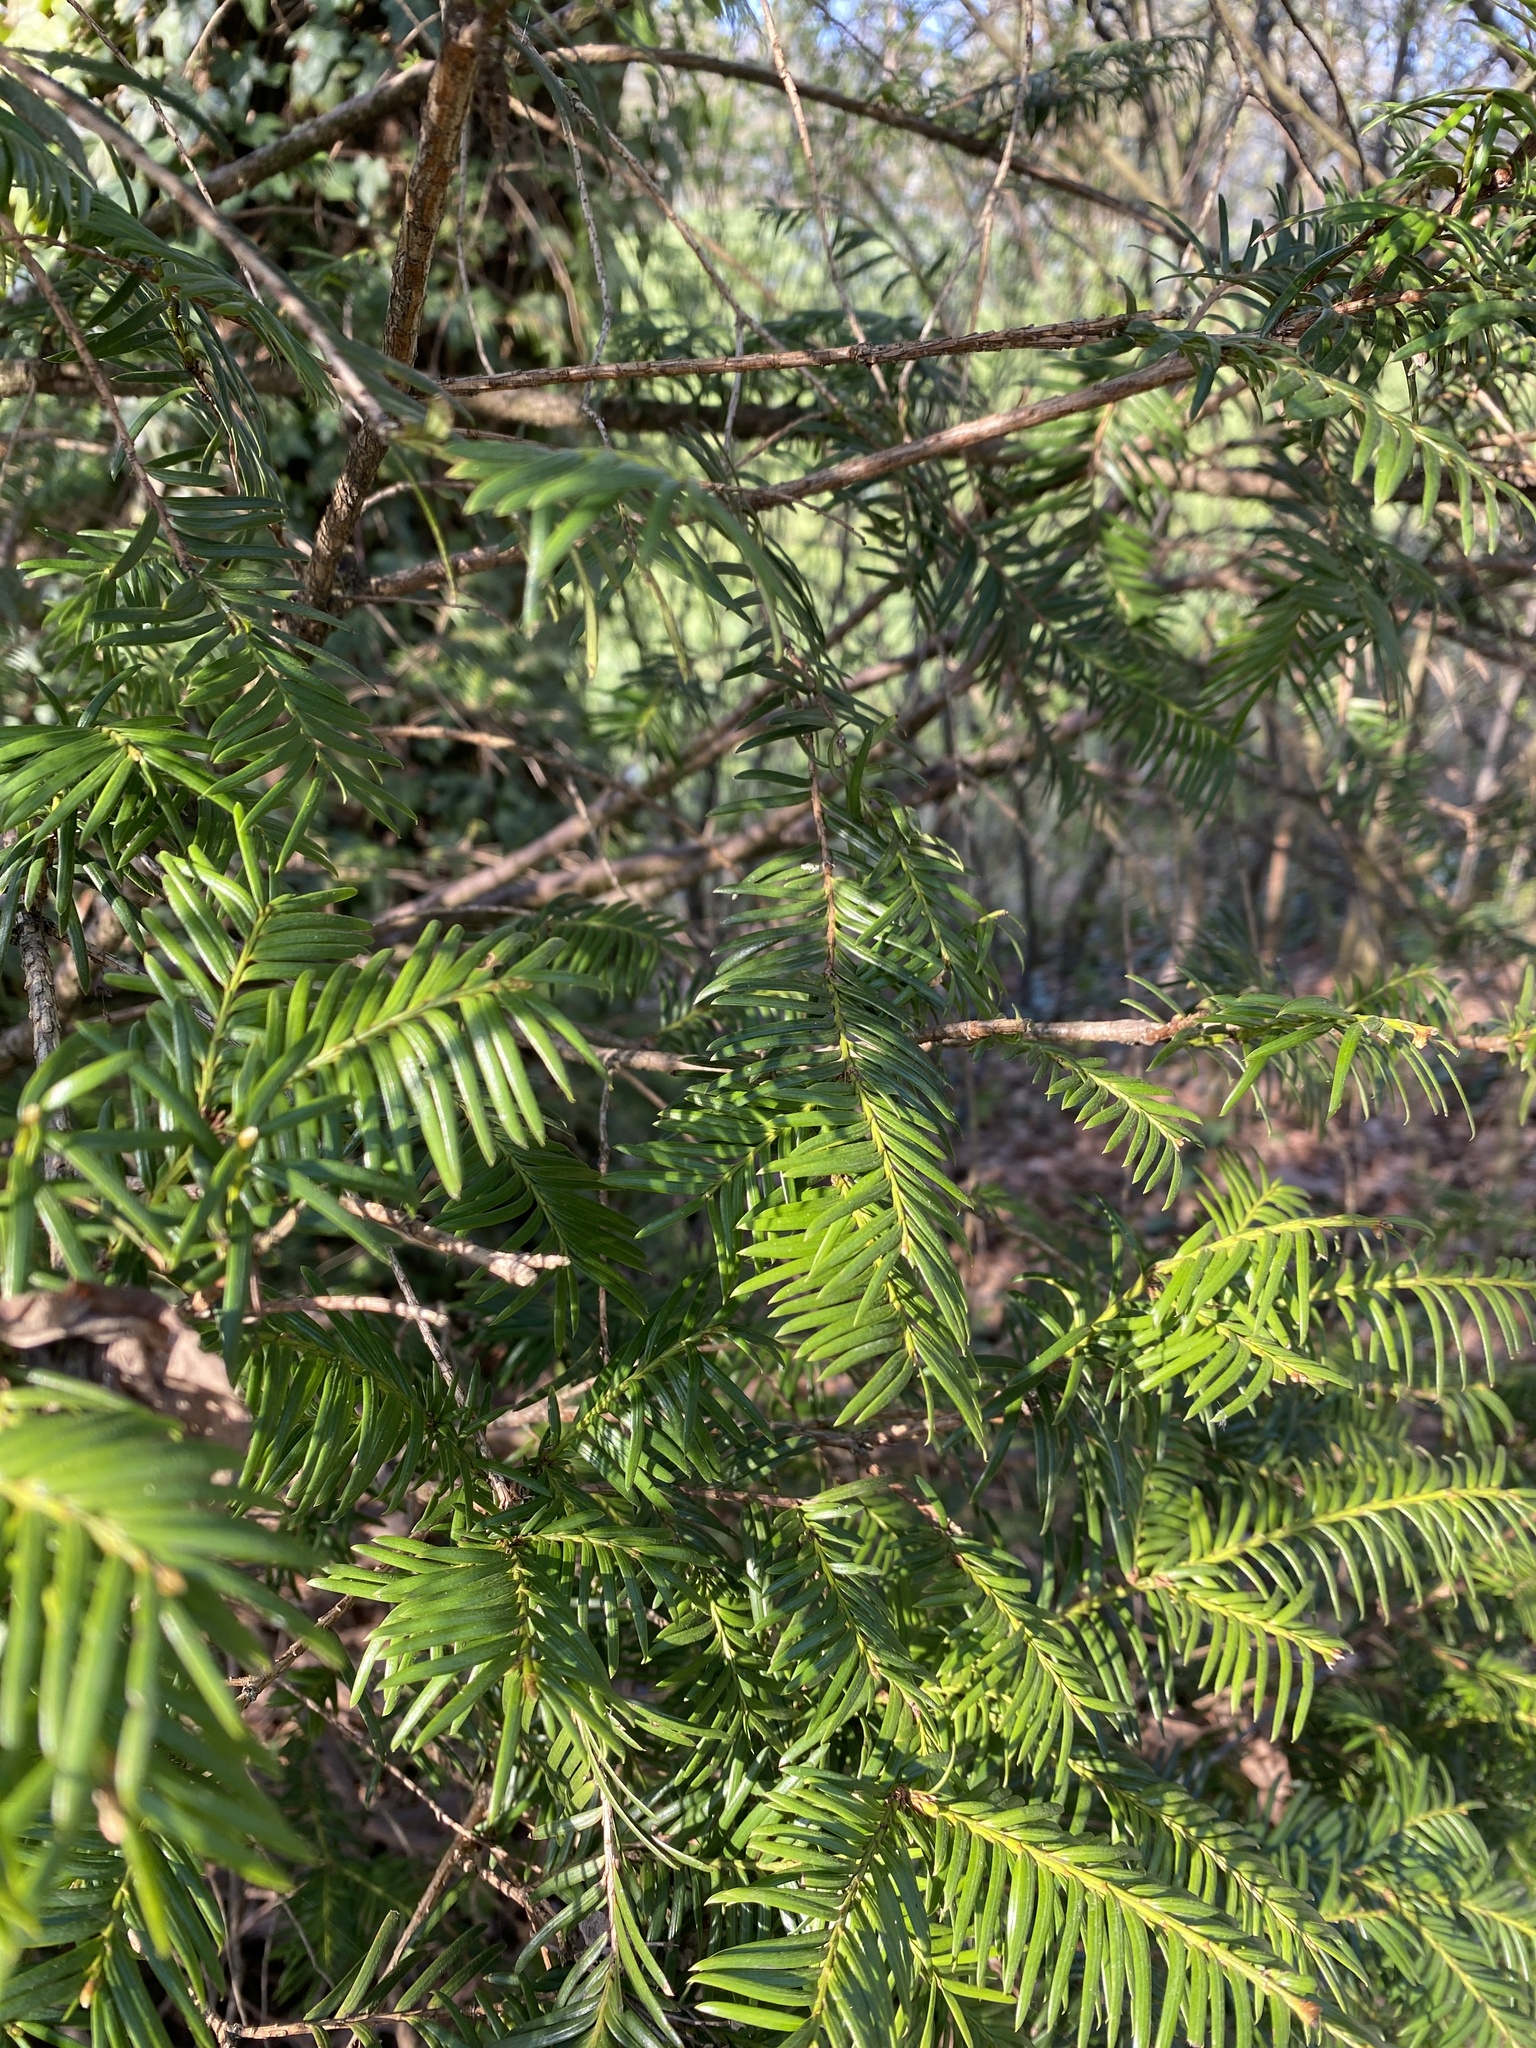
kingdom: Plantae
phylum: Tracheophyta
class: Pinopsida
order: Pinales
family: Taxaceae
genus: Taxus
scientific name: Taxus baccata
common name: Yew
